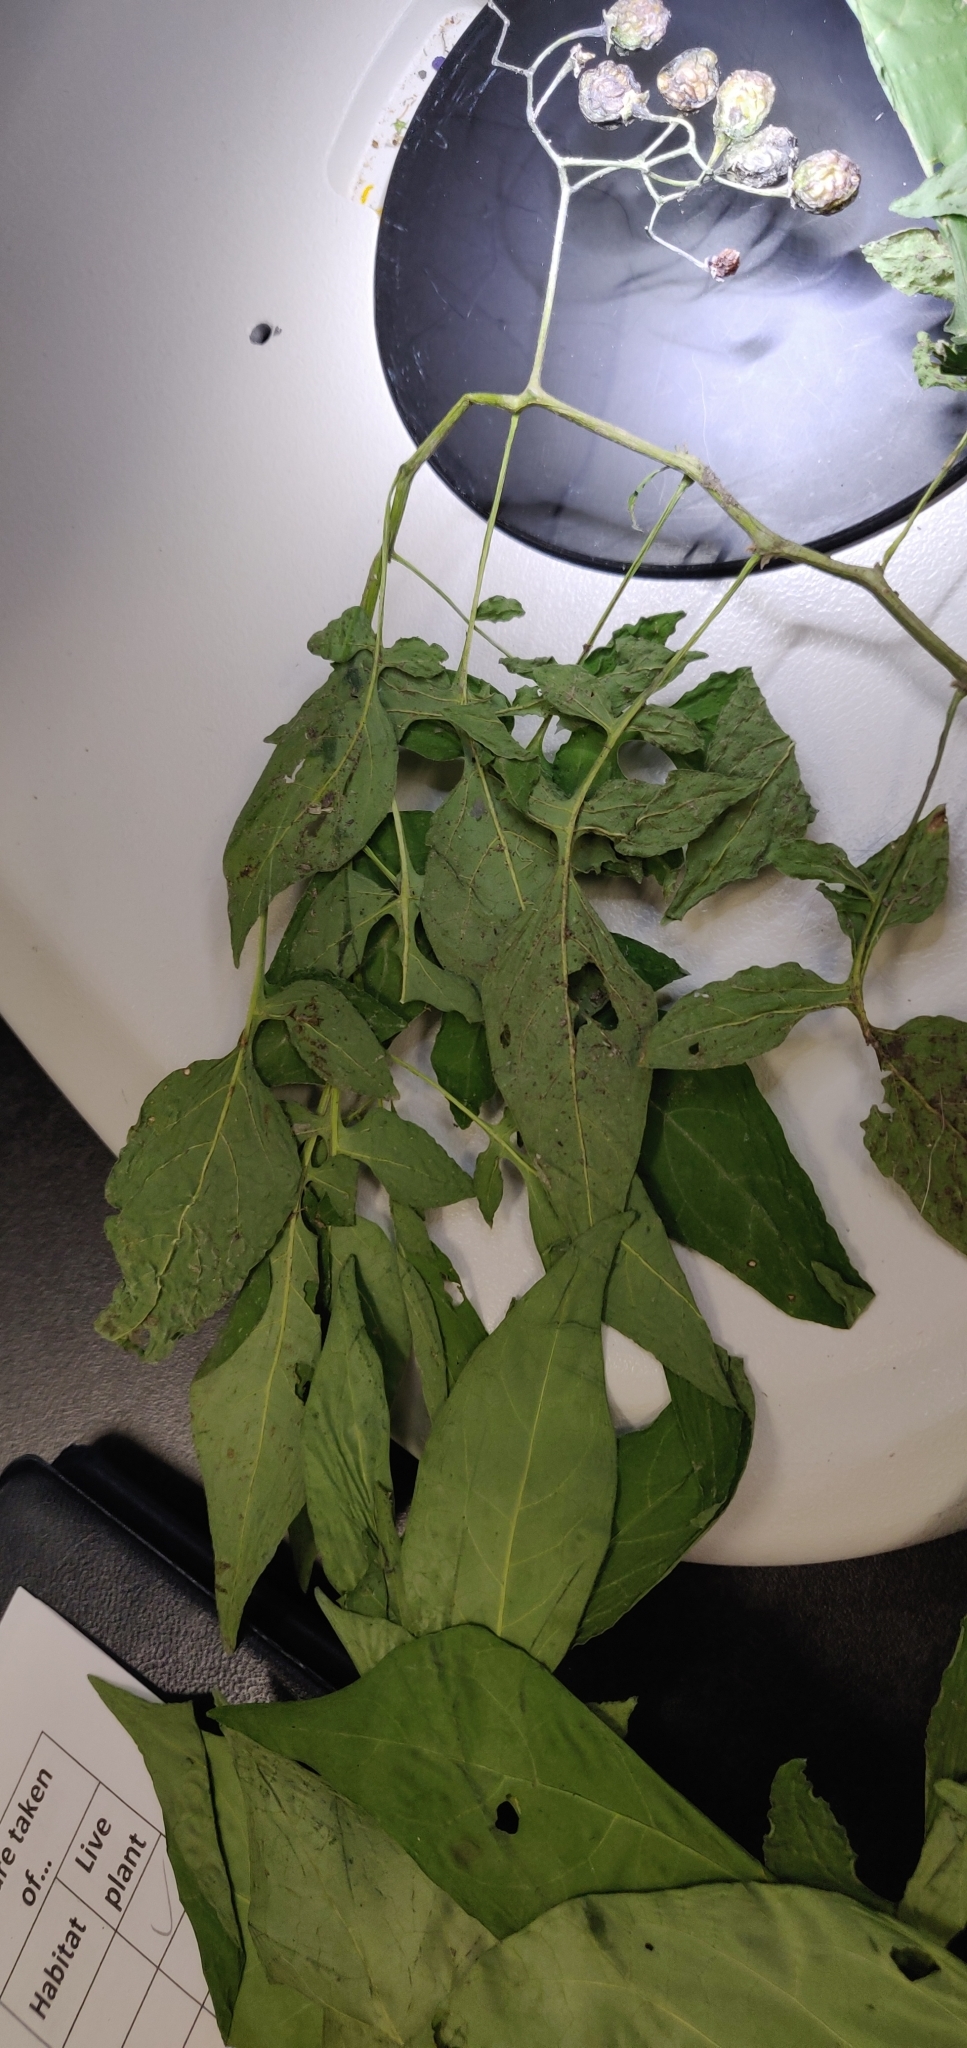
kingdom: Plantae
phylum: Tracheophyta
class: Magnoliopsida
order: Solanales
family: Solanaceae
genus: Solanum
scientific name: Solanum dulcamara
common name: Climbing nightshade
